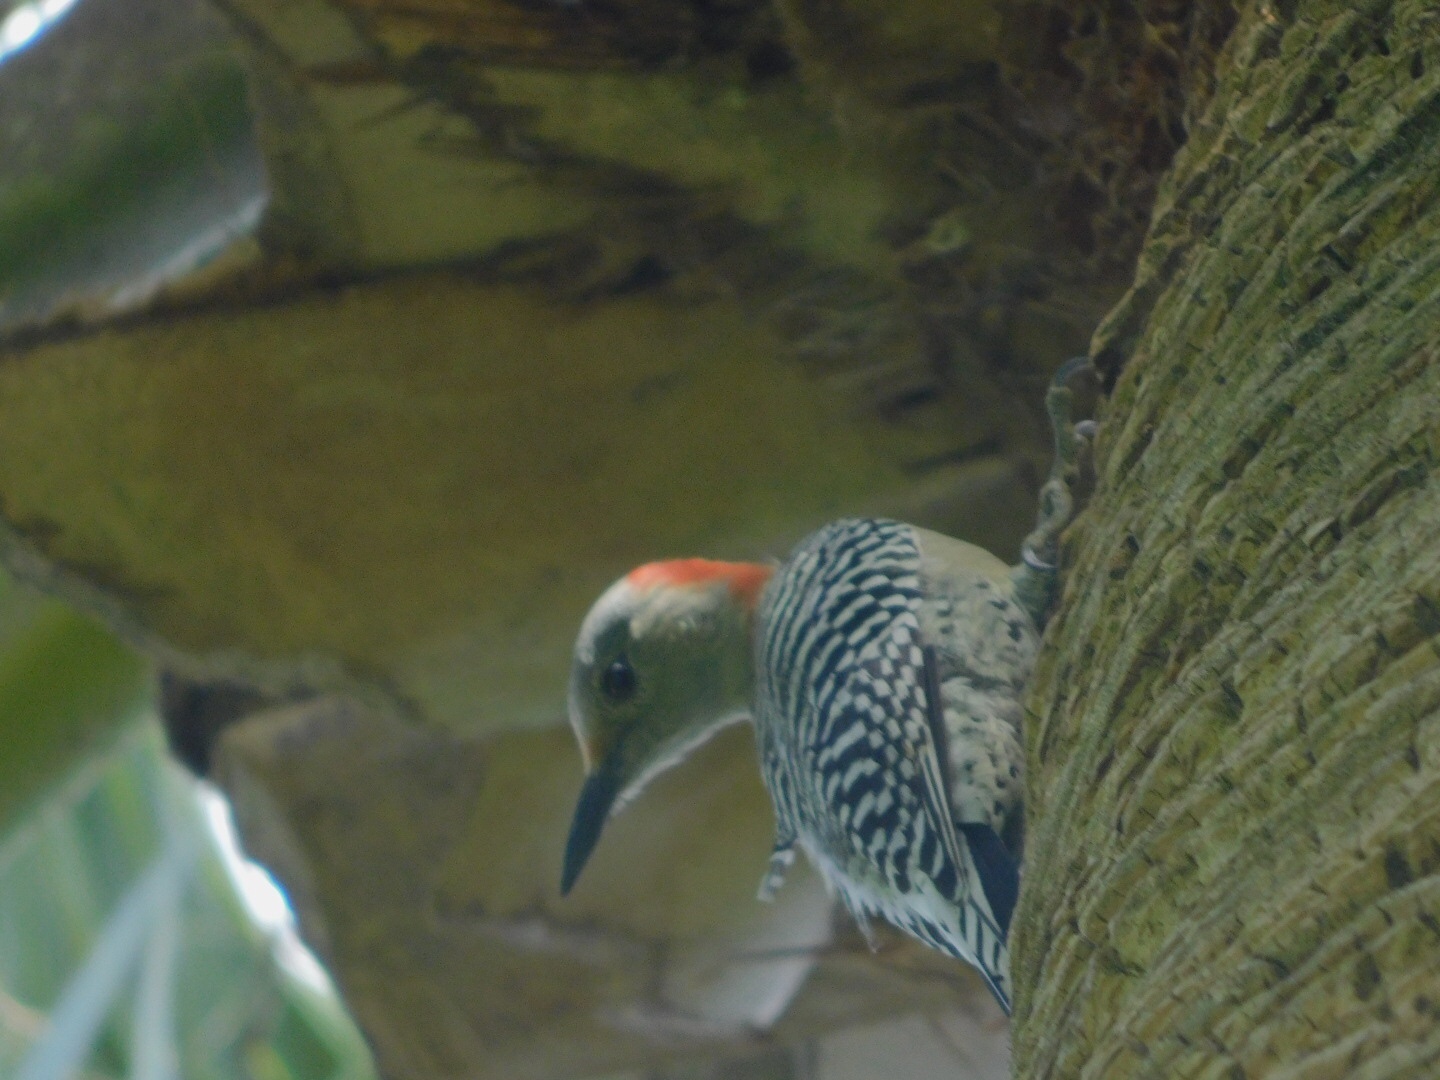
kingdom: Animalia
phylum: Chordata
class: Aves
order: Piciformes
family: Picidae
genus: Melanerpes
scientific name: Melanerpes carolinus
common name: Red-bellied woodpecker
